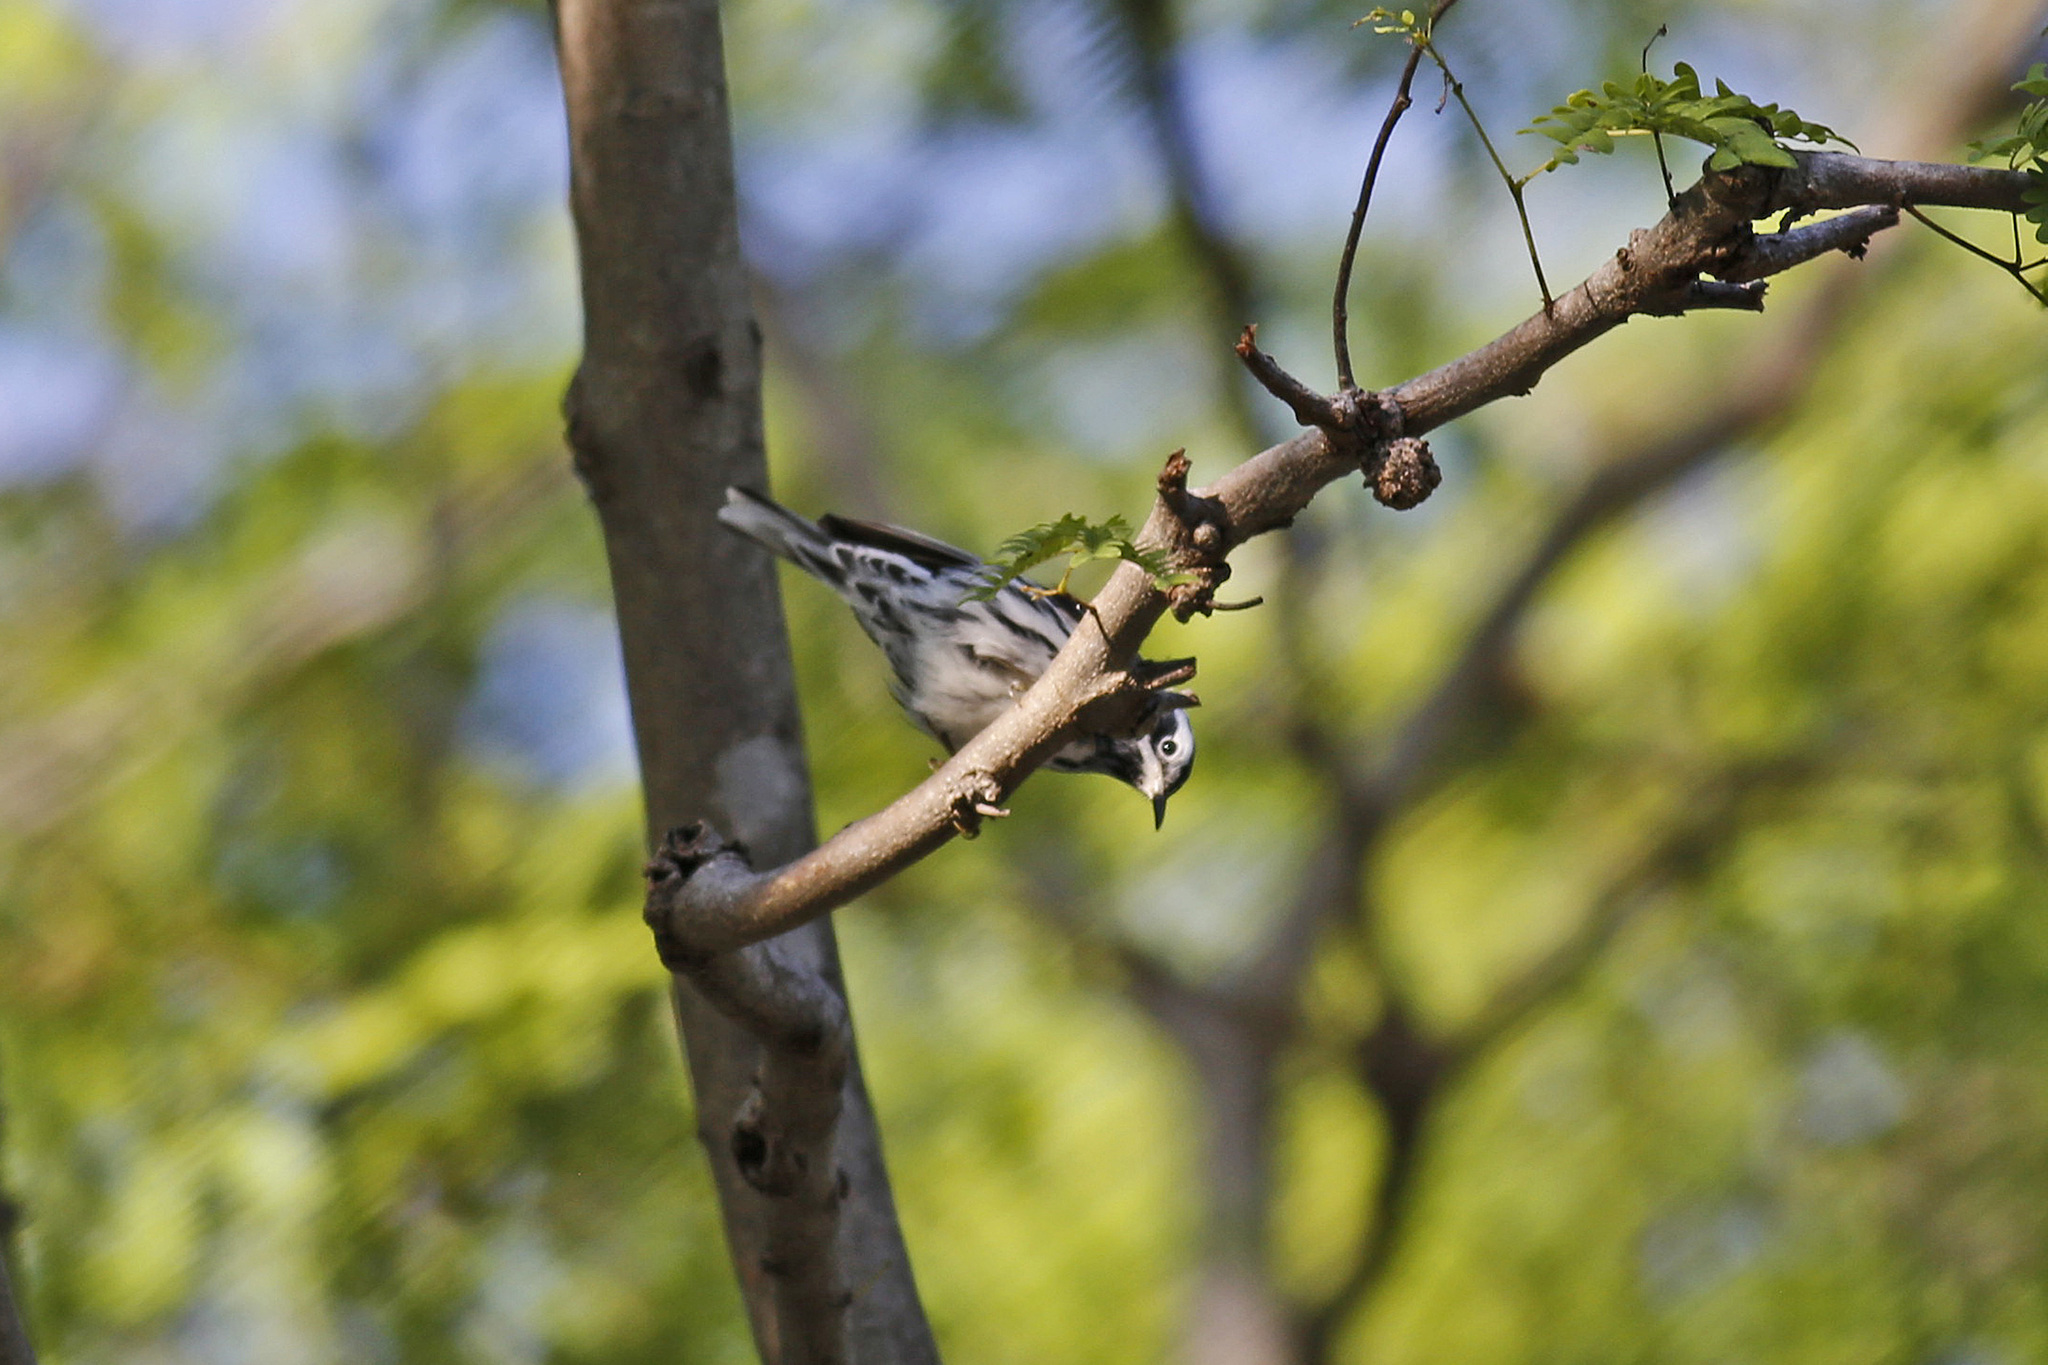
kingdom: Animalia
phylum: Chordata
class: Aves
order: Passeriformes
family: Parulidae
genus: Mniotilta
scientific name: Mniotilta varia
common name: Black-and-white warbler
